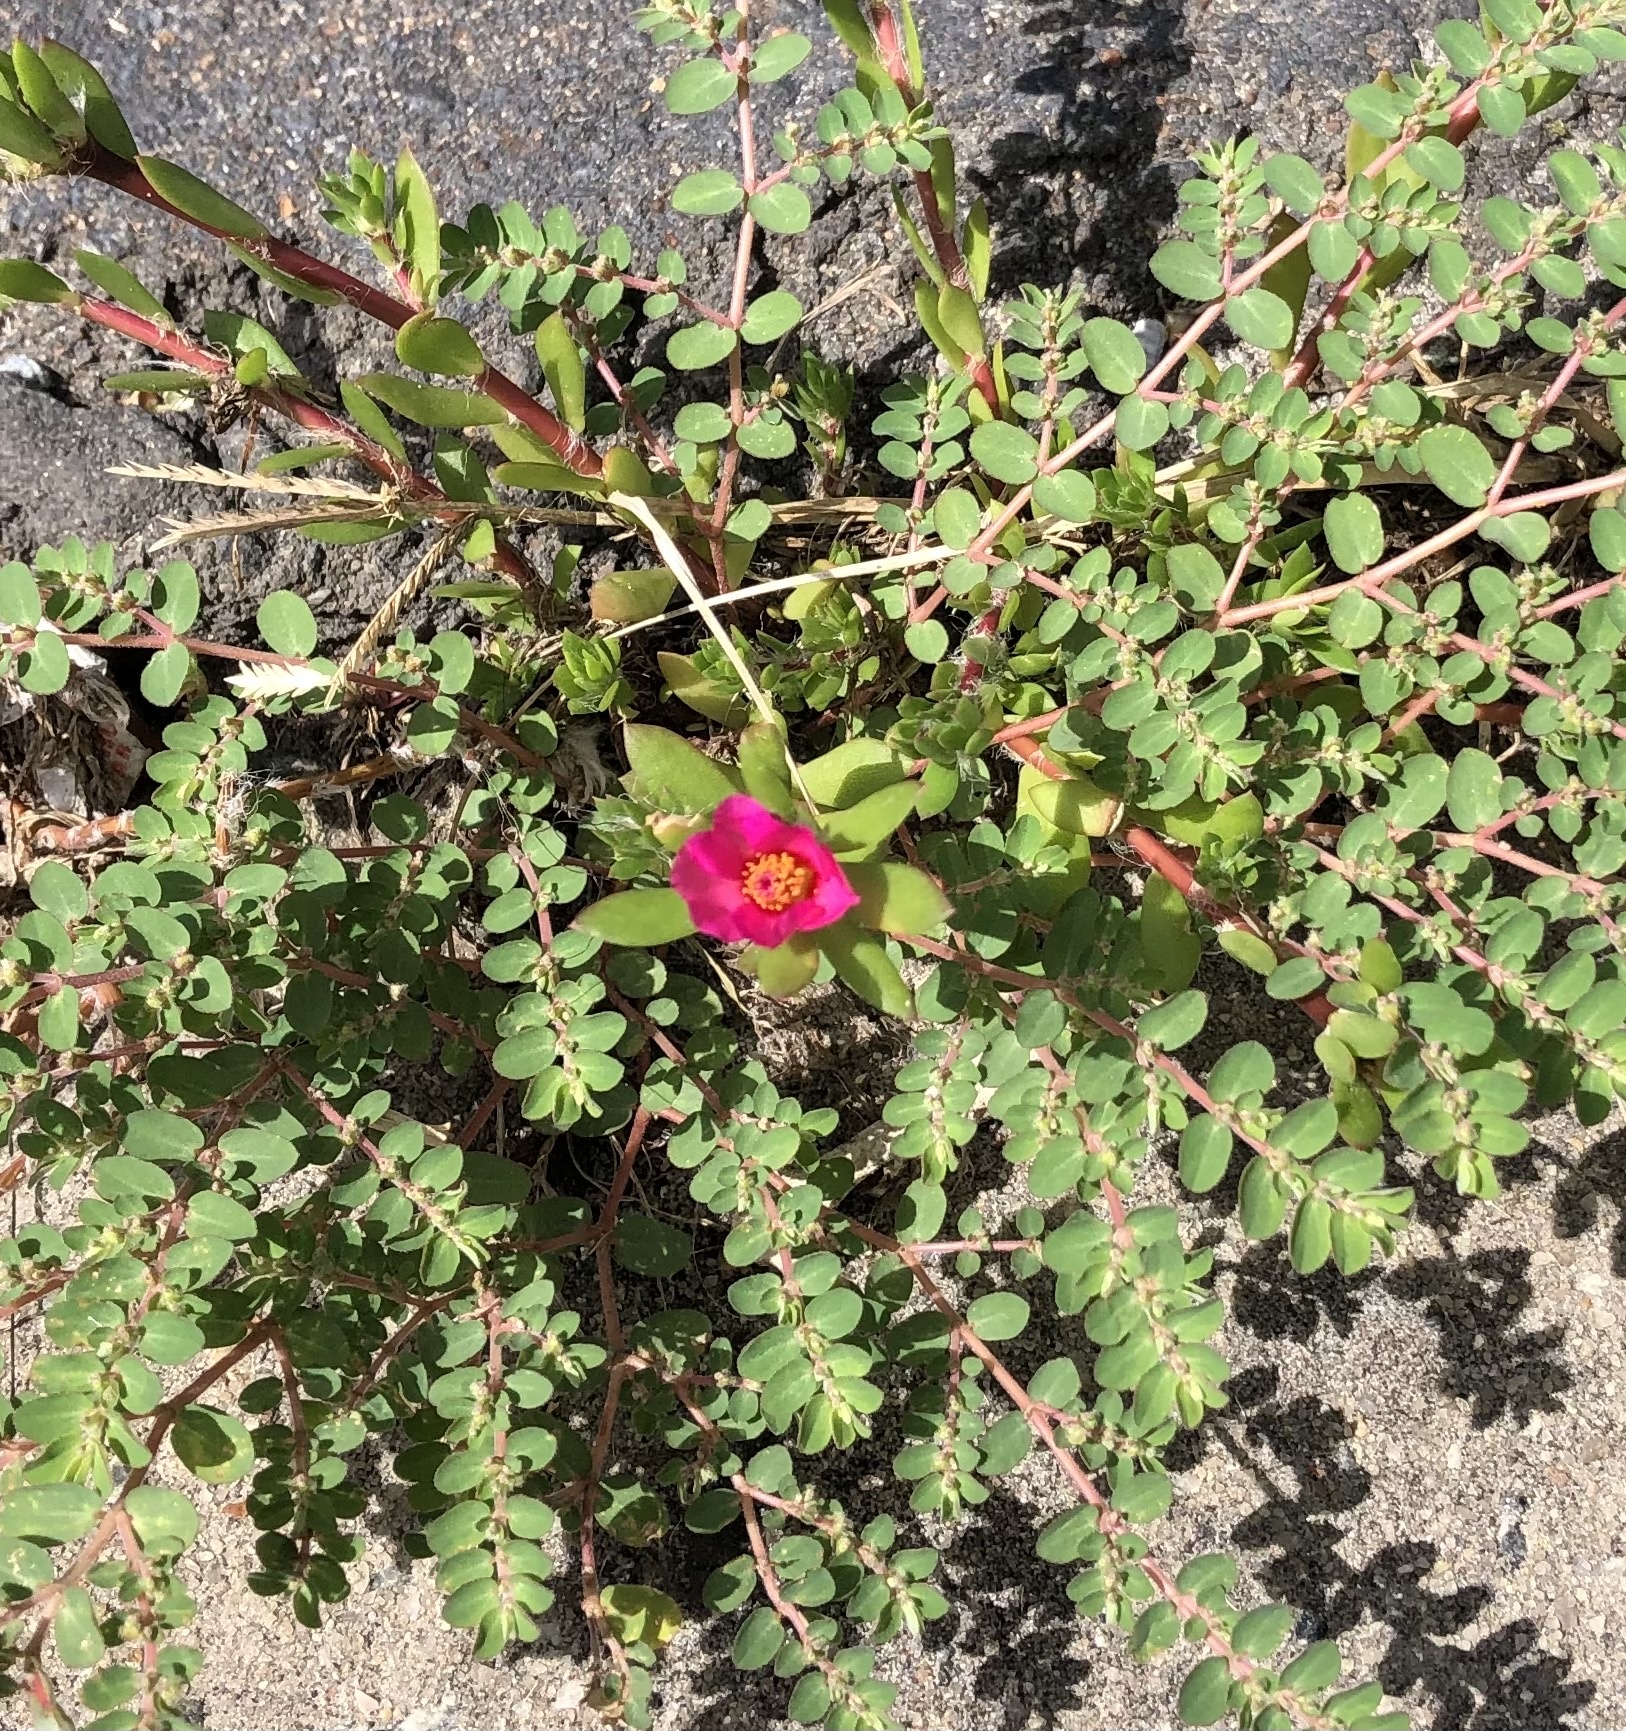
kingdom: Plantae
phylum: Tracheophyta
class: Magnoliopsida
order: Caryophyllales
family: Portulacaceae
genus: Portulaca
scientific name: Portulaca amilis
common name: Paraguayan purslane
